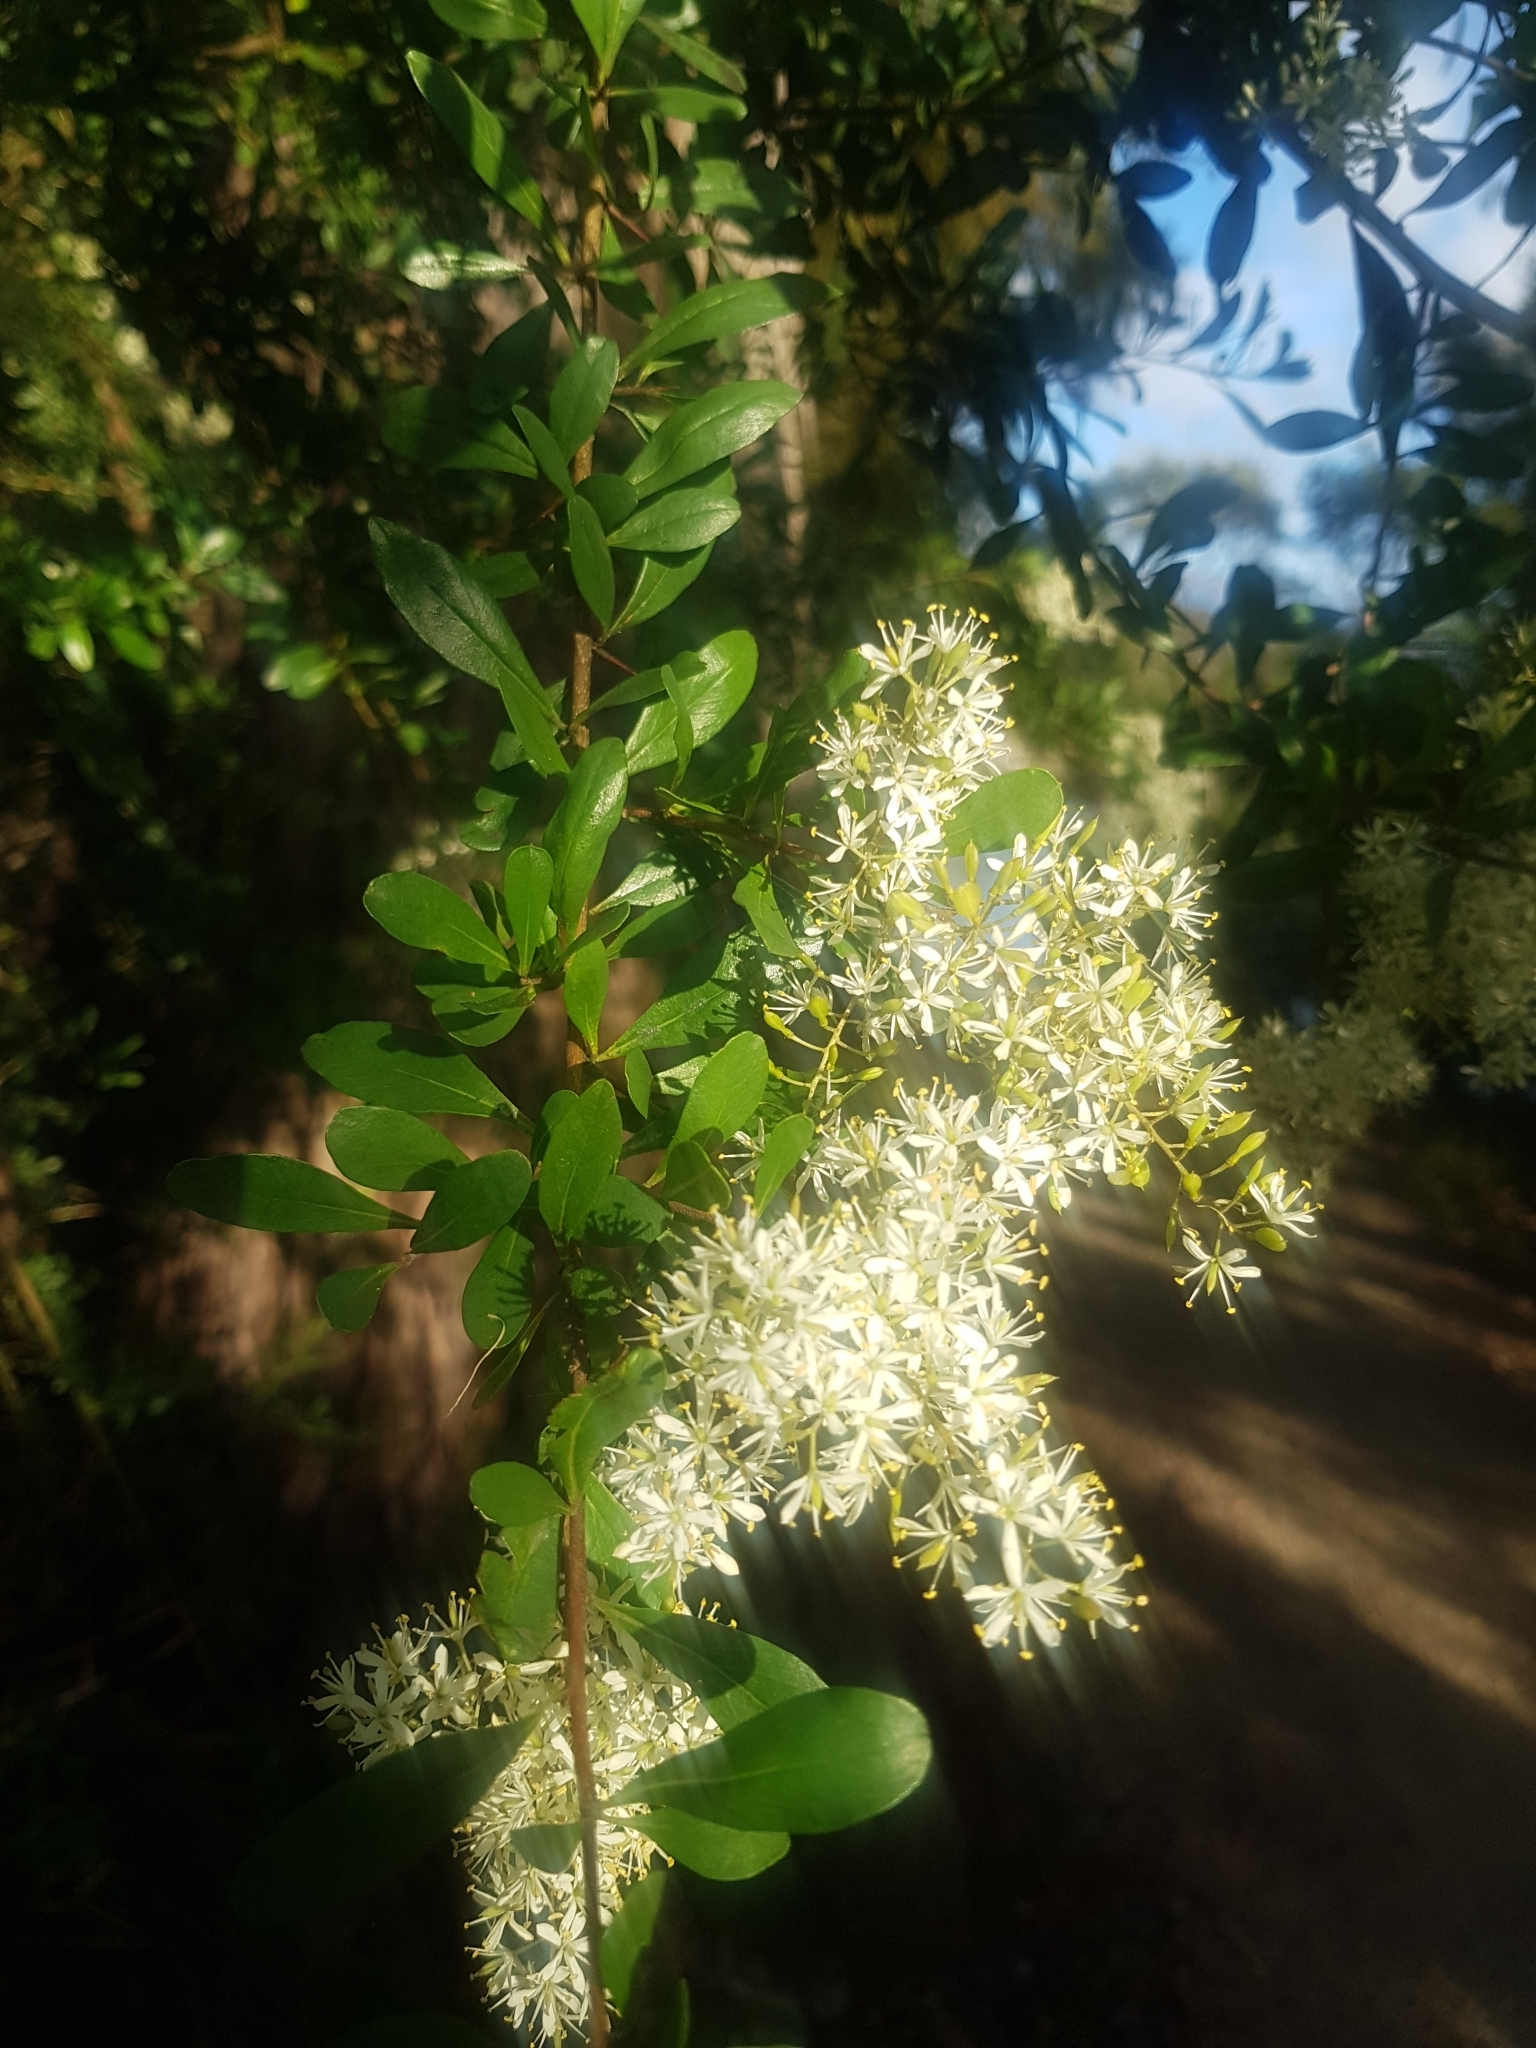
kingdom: Plantae
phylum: Tracheophyta
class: Magnoliopsida
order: Apiales
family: Pittosporaceae
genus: Bursaria
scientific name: Bursaria spinosa
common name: Australian blackthorn
